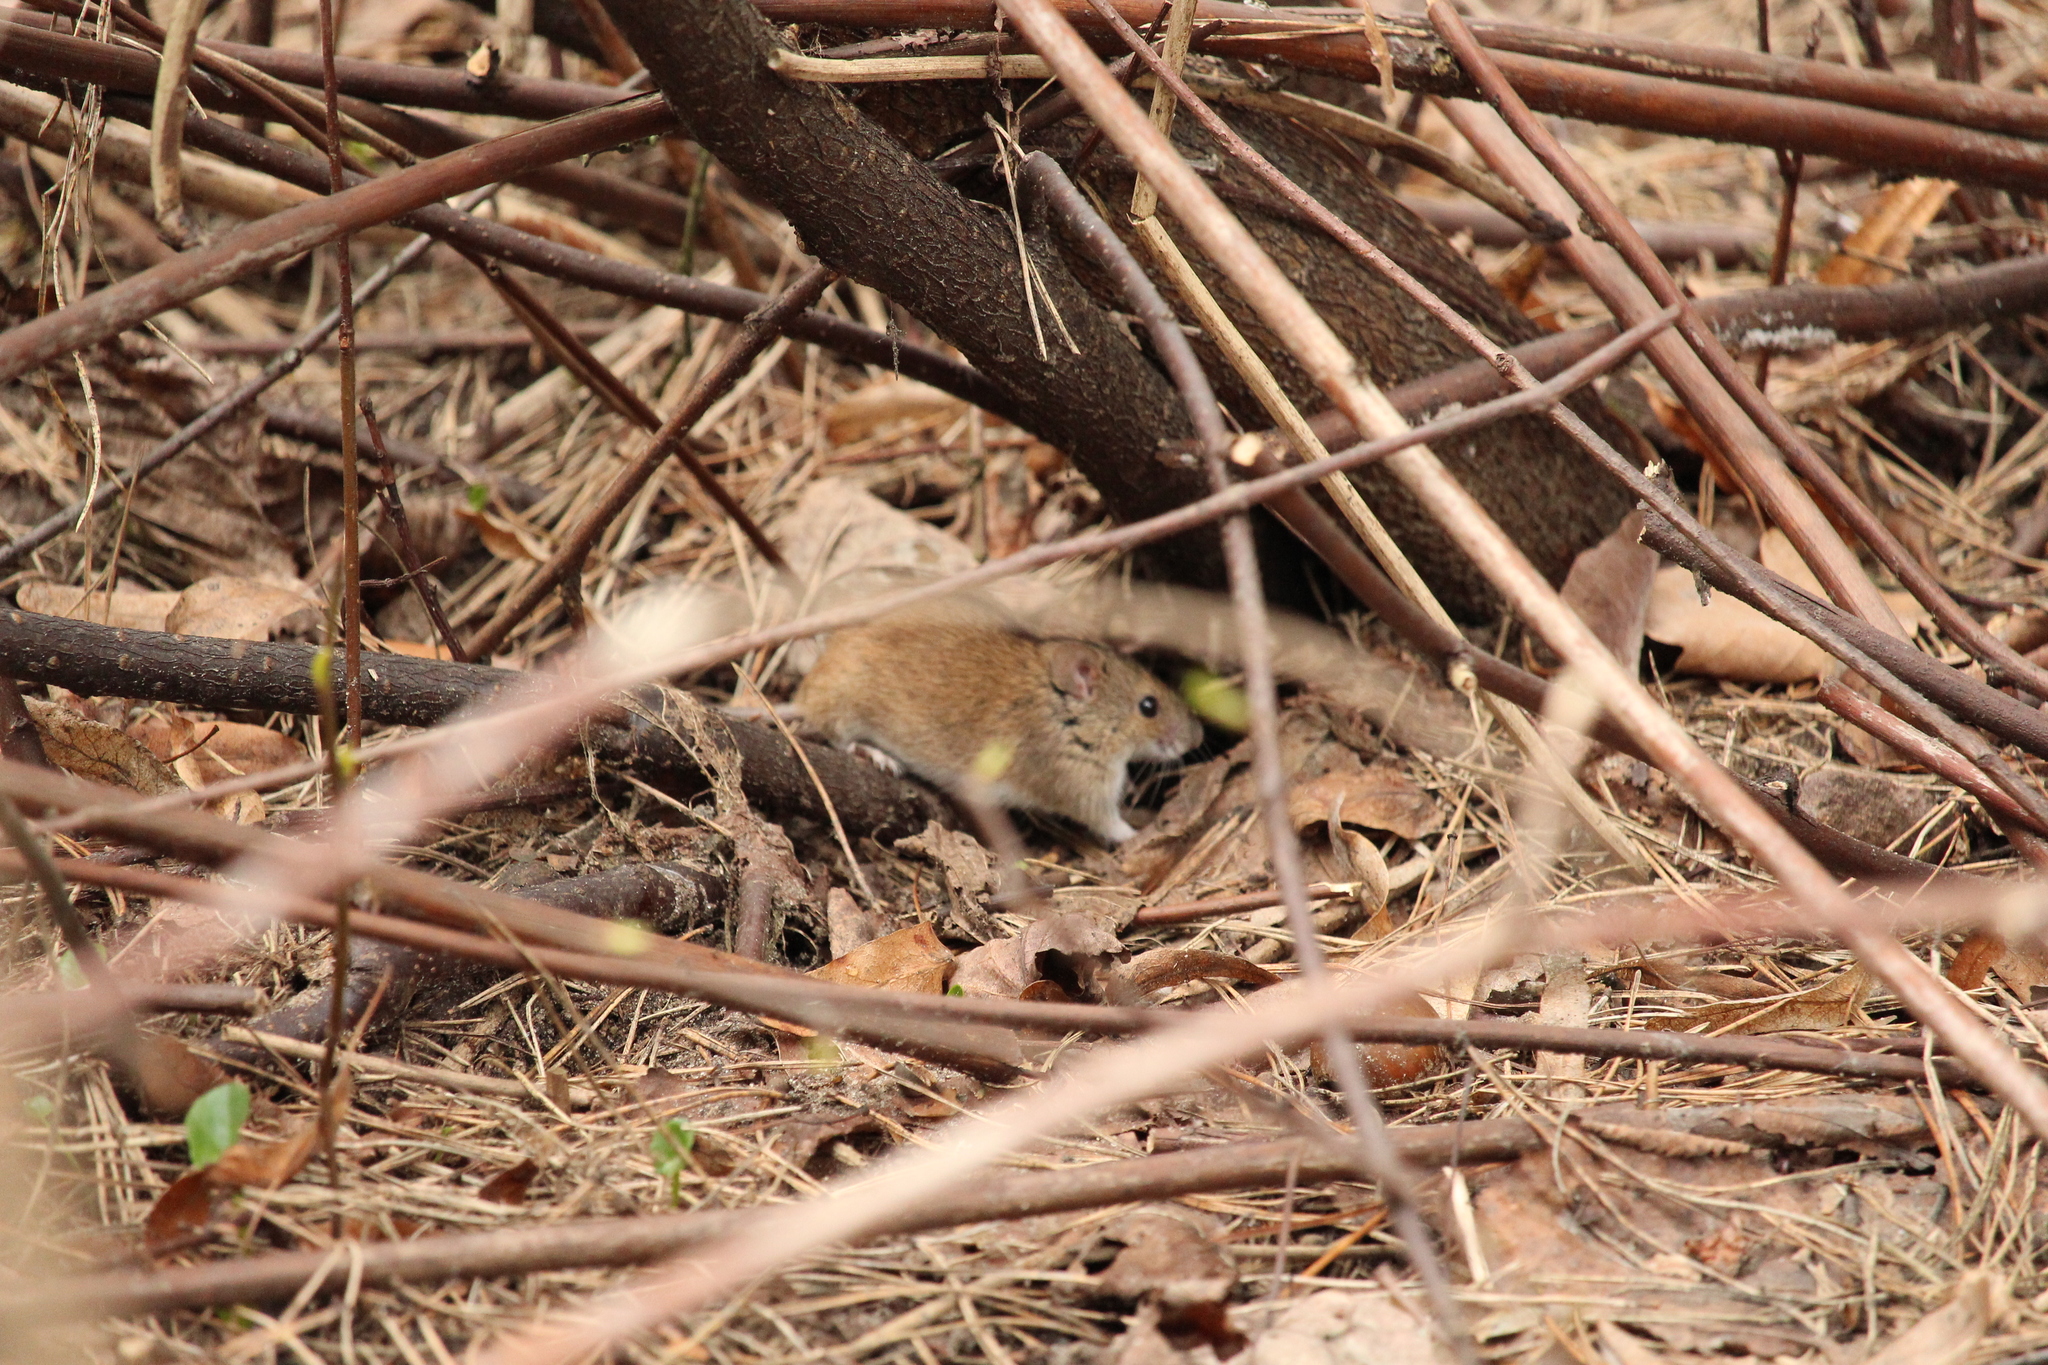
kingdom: Animalia
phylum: Chordata
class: Mammalia
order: Rodentia
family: Muridae
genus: Apodemus
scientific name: Apodemus agrarius
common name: Striped field mouse
